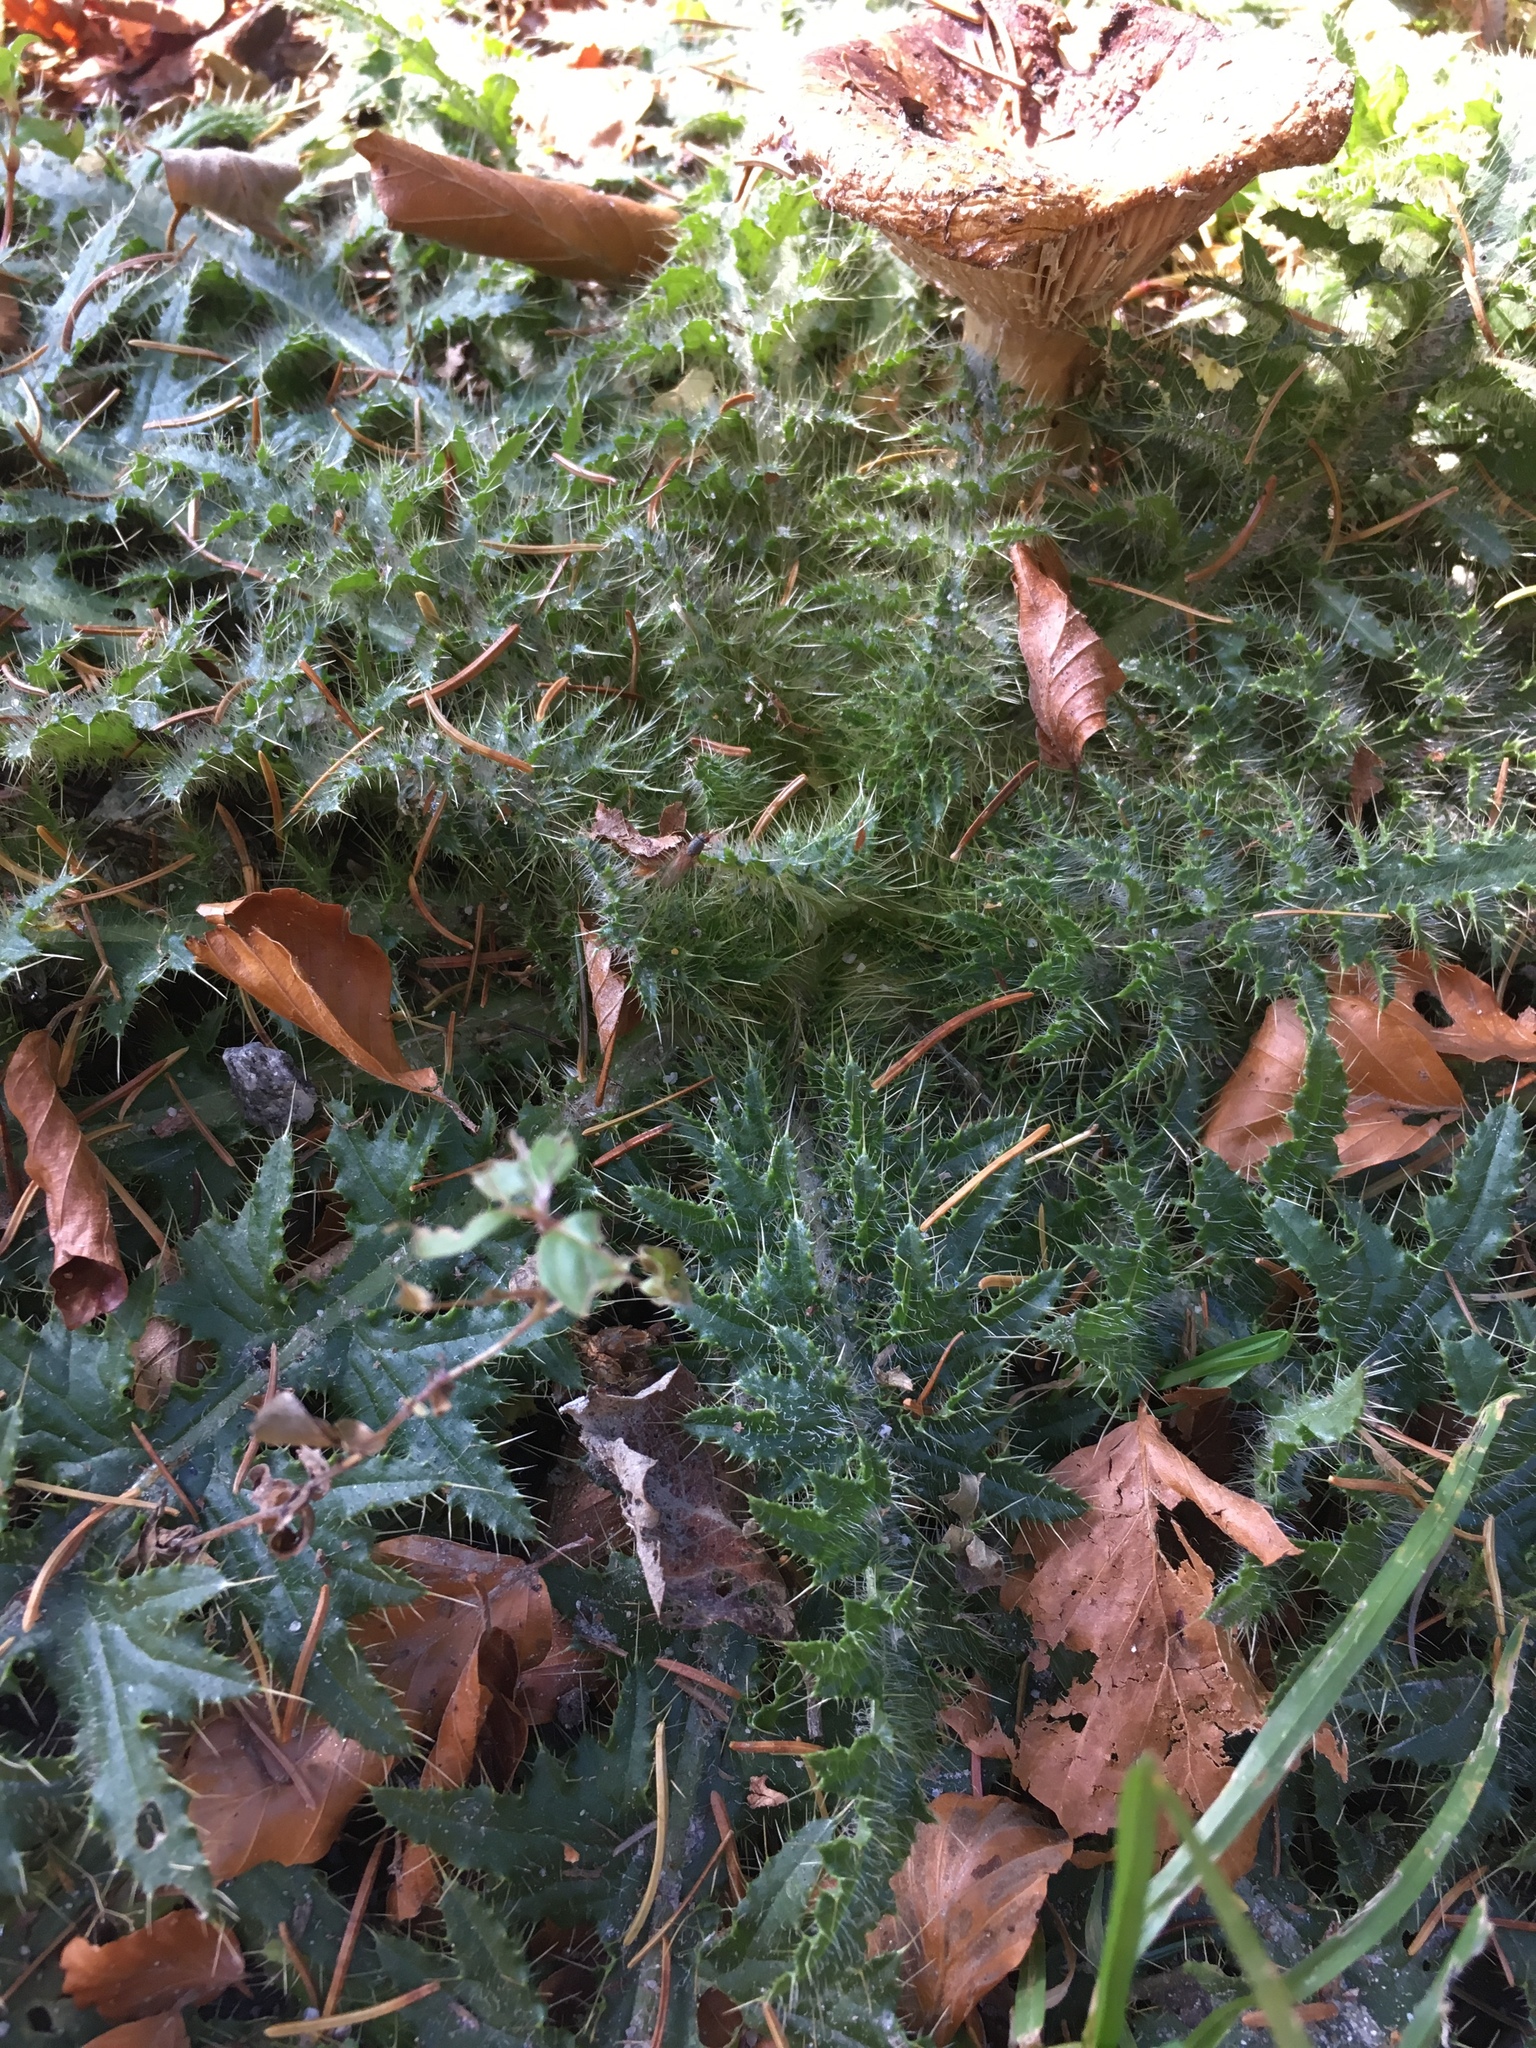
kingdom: Plantae
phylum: Tracheophyta
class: Magnoliopsida
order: Asterales
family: Asteraceae
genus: Cirsium
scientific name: Cirsium palustre
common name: Marsh thistle
